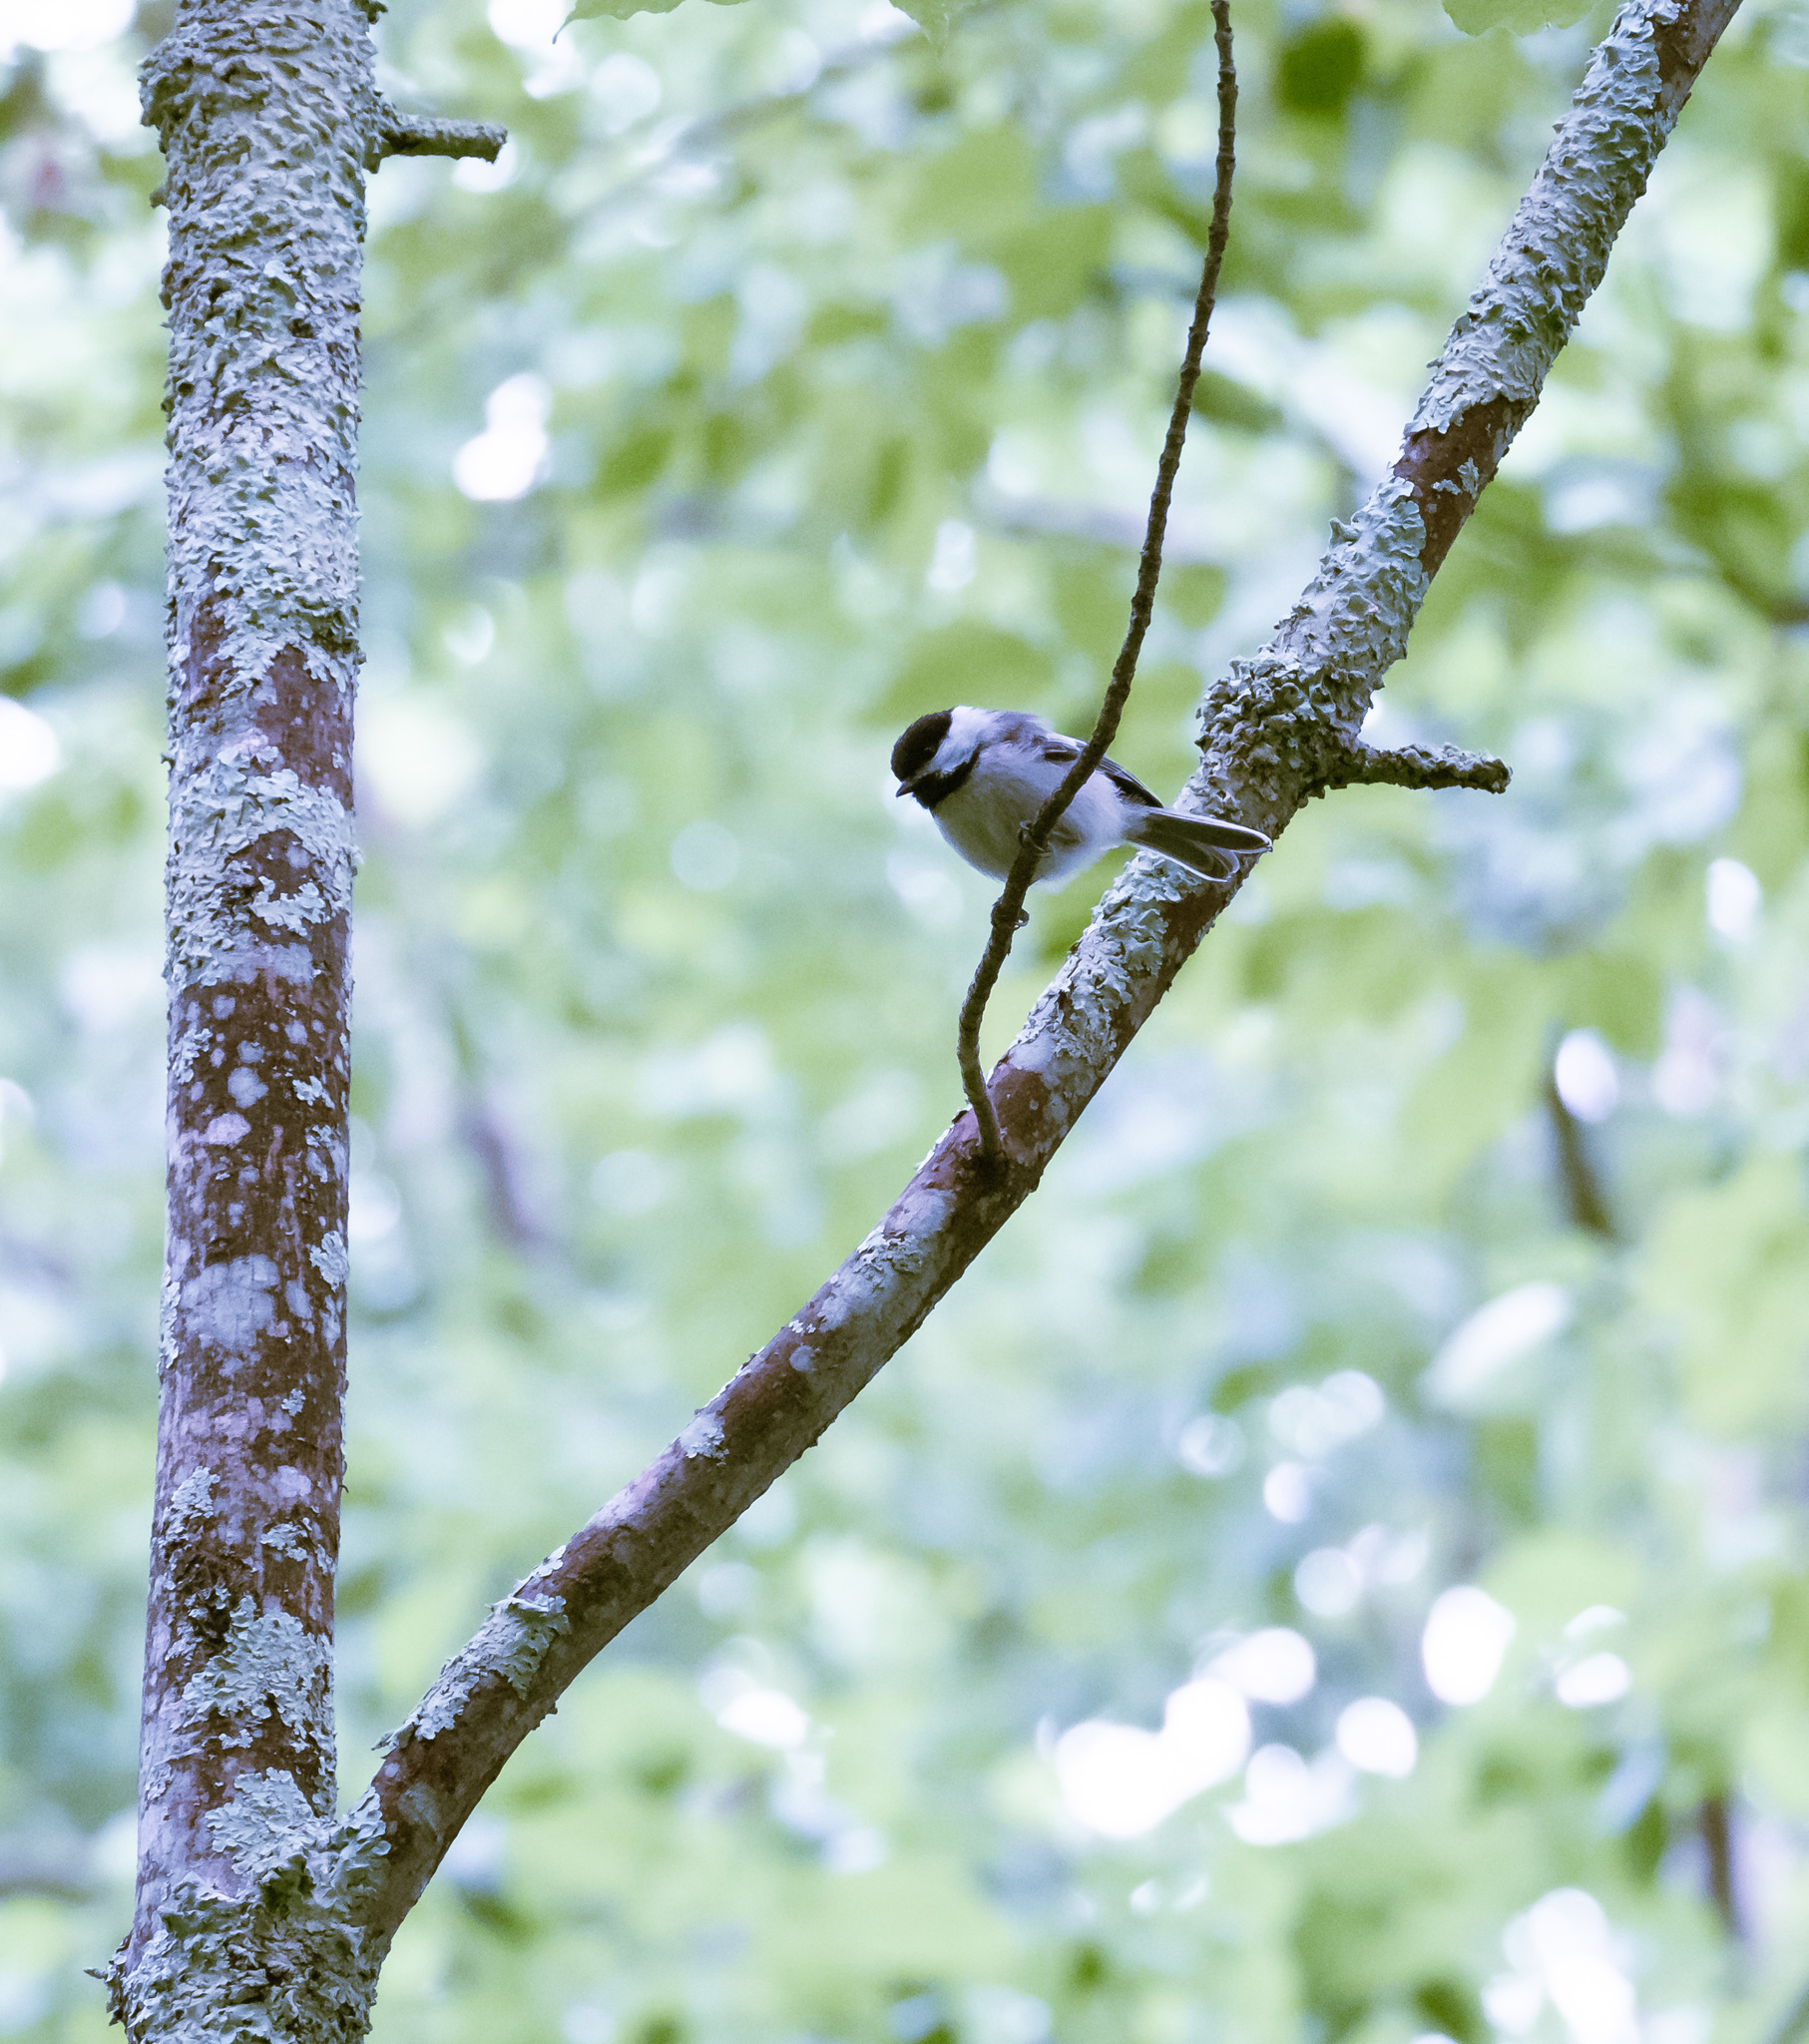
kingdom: Animalia
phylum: Chordata
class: Aves
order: Passeriformes
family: Paridae
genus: Poecile
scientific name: Poecile atricapillus
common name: Black-capped chickadee
